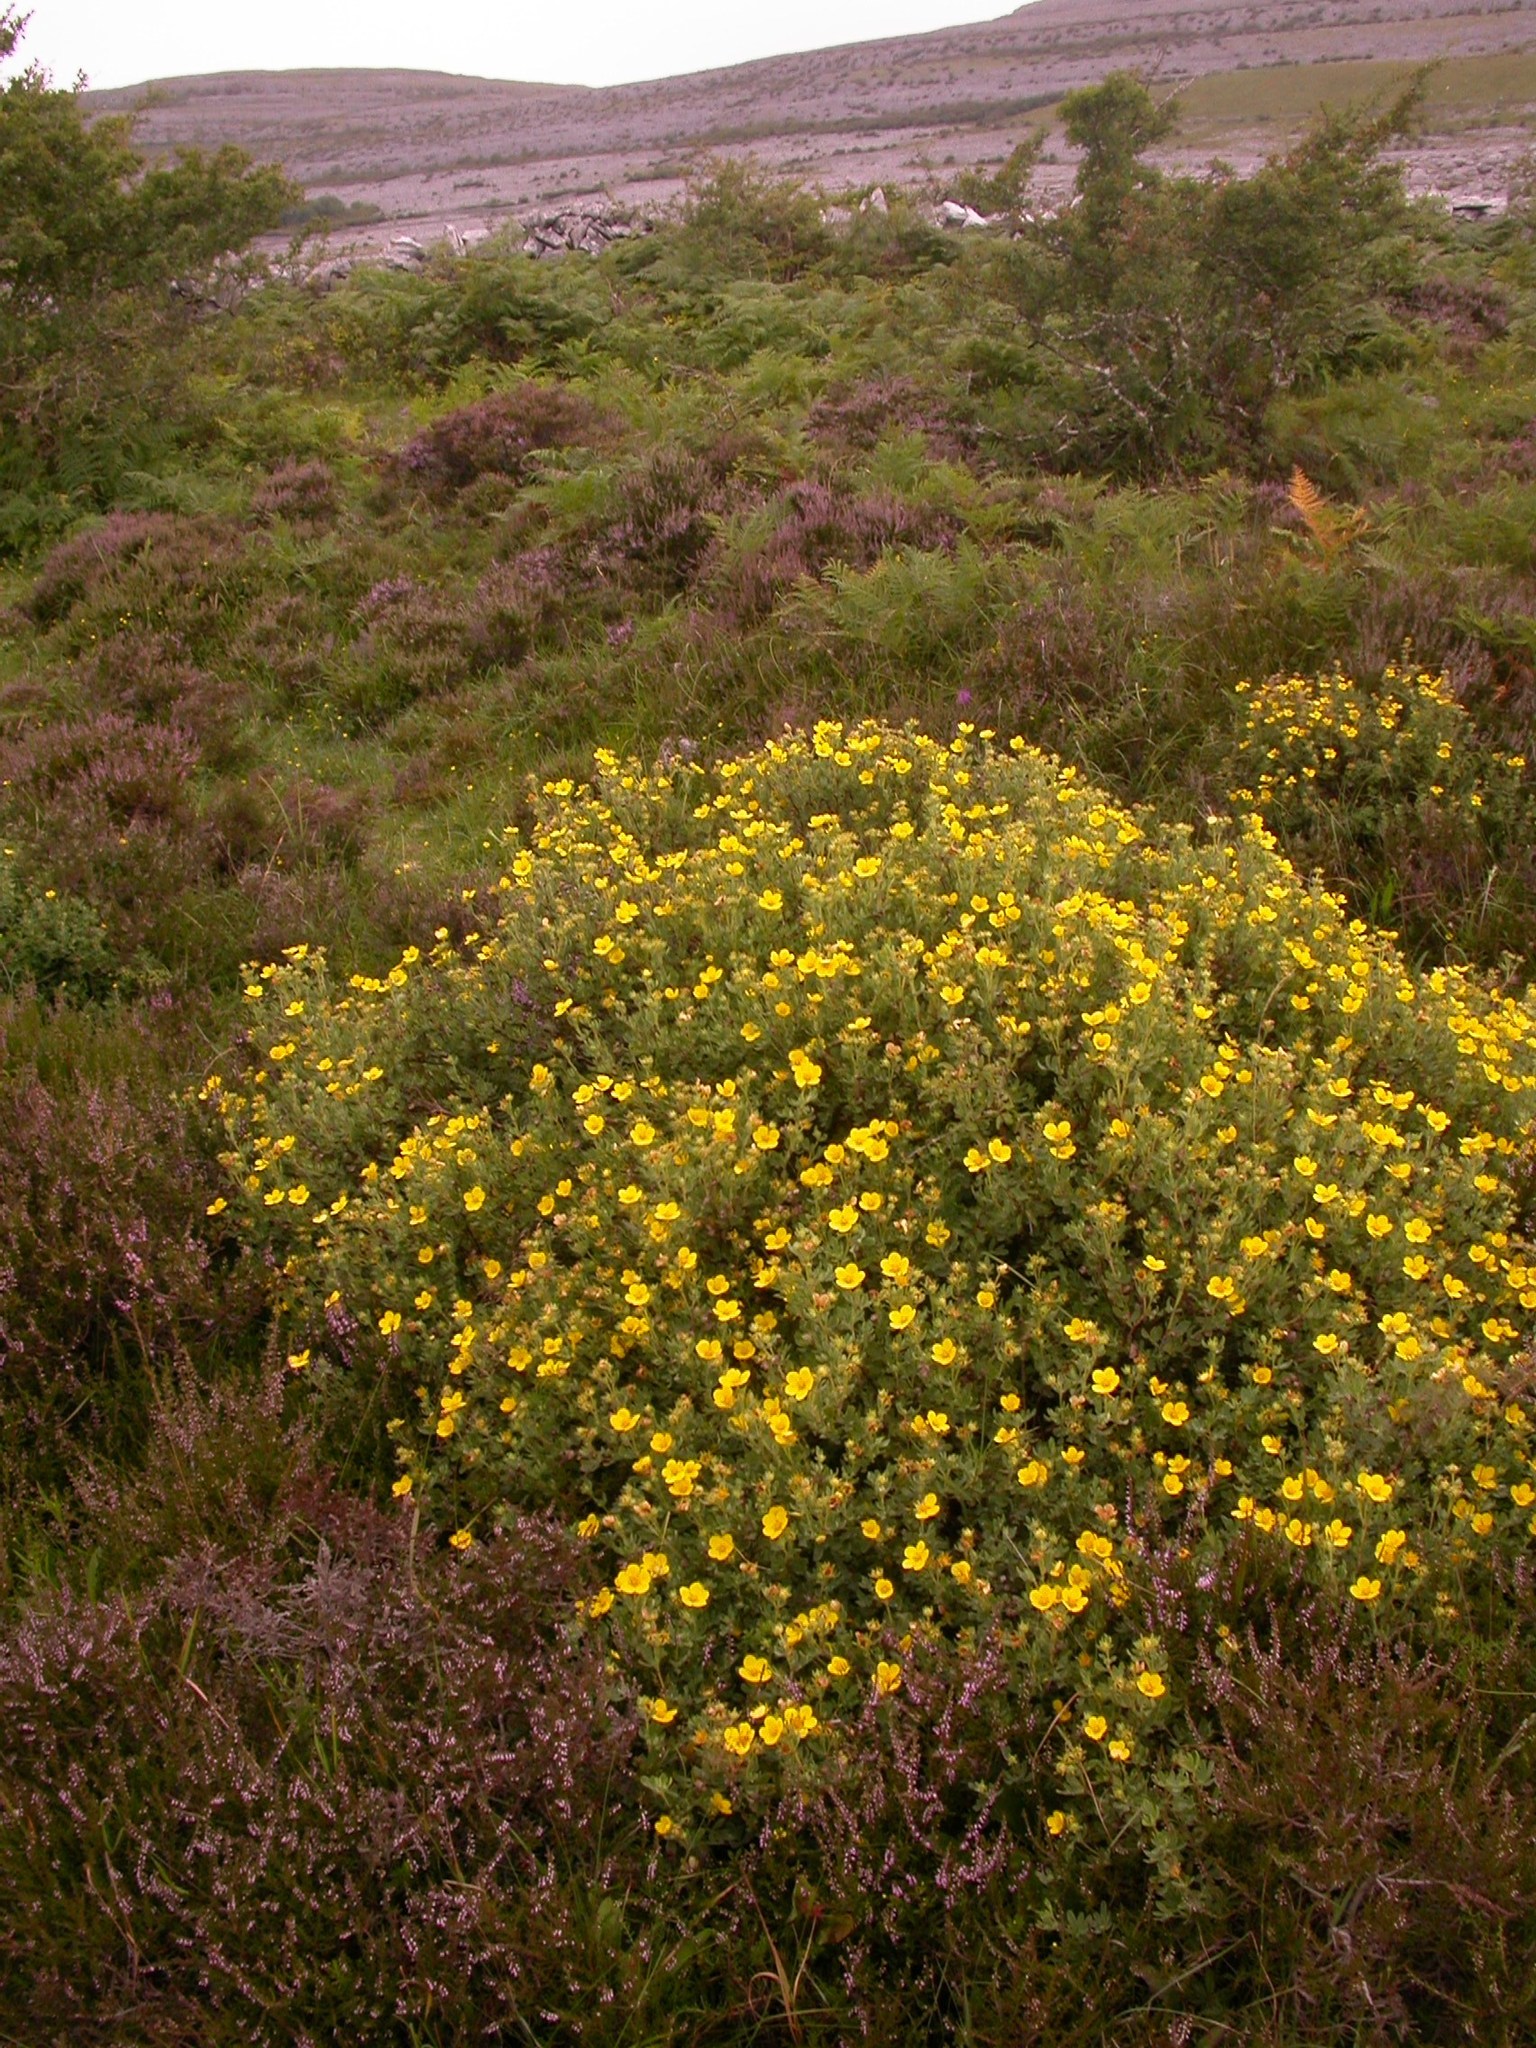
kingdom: Plantae
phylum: Tracheophyta
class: Magnoliopsida
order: Rosales
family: Rosaceae
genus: Dasiphora
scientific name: Dasiphora fruticosa
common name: Shrubby cinquefoil
